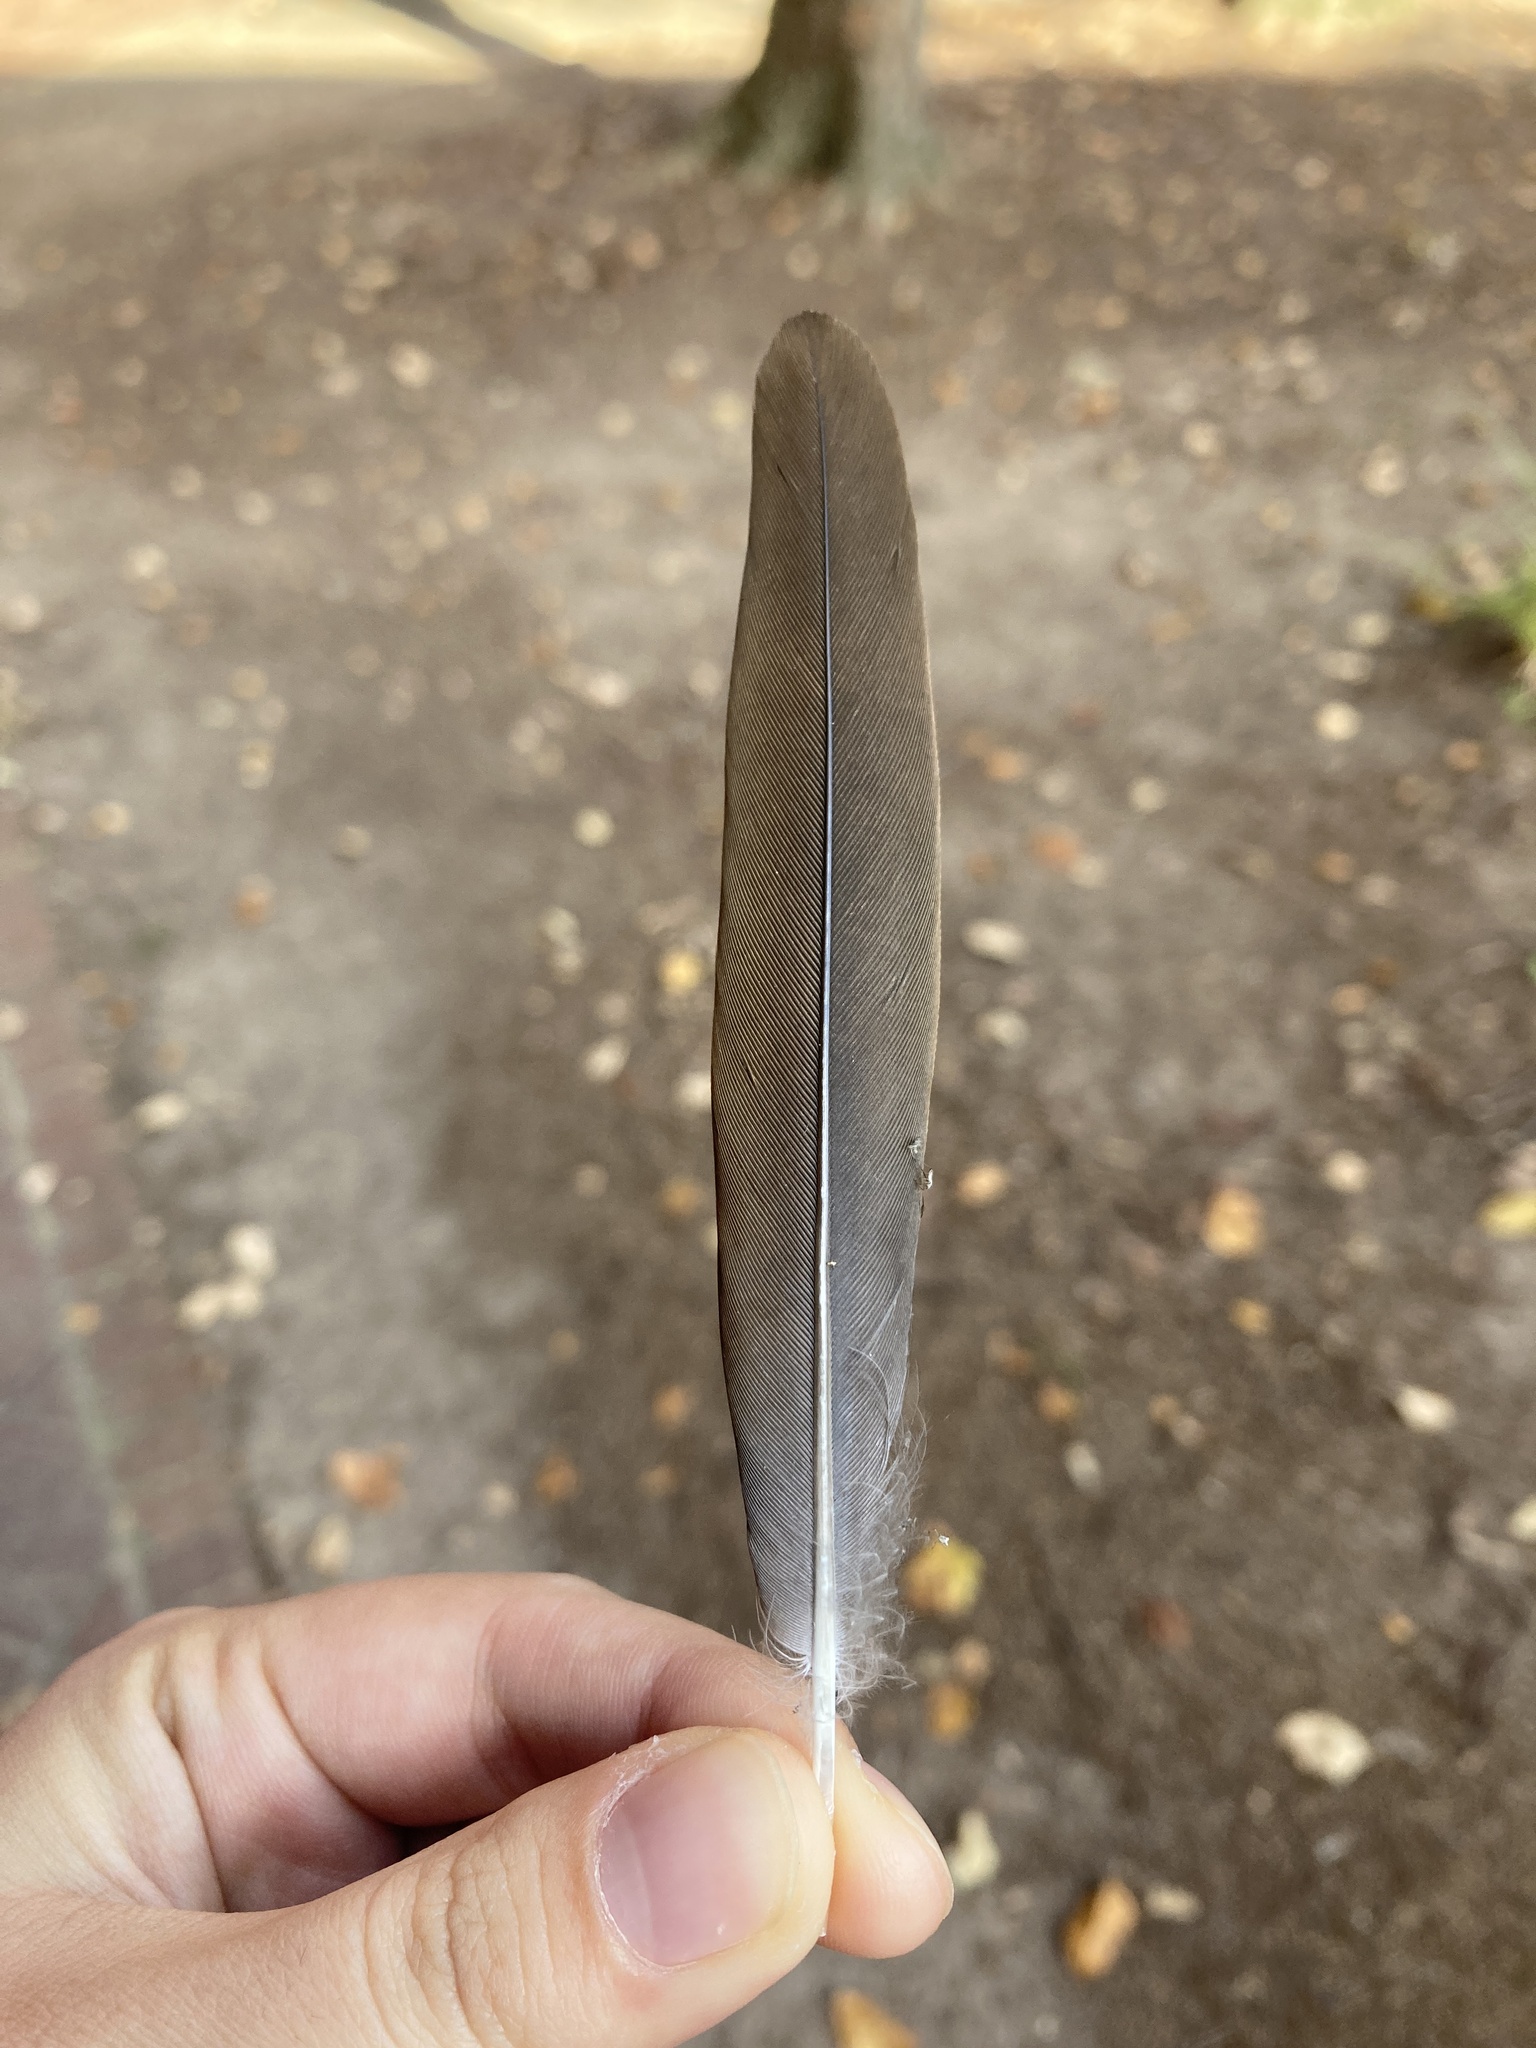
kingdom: Animalia
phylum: Chordata
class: Aves
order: Columbiformes
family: Columbidae
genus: Zenaida
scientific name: Zenaida macroura
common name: Mourning dove
